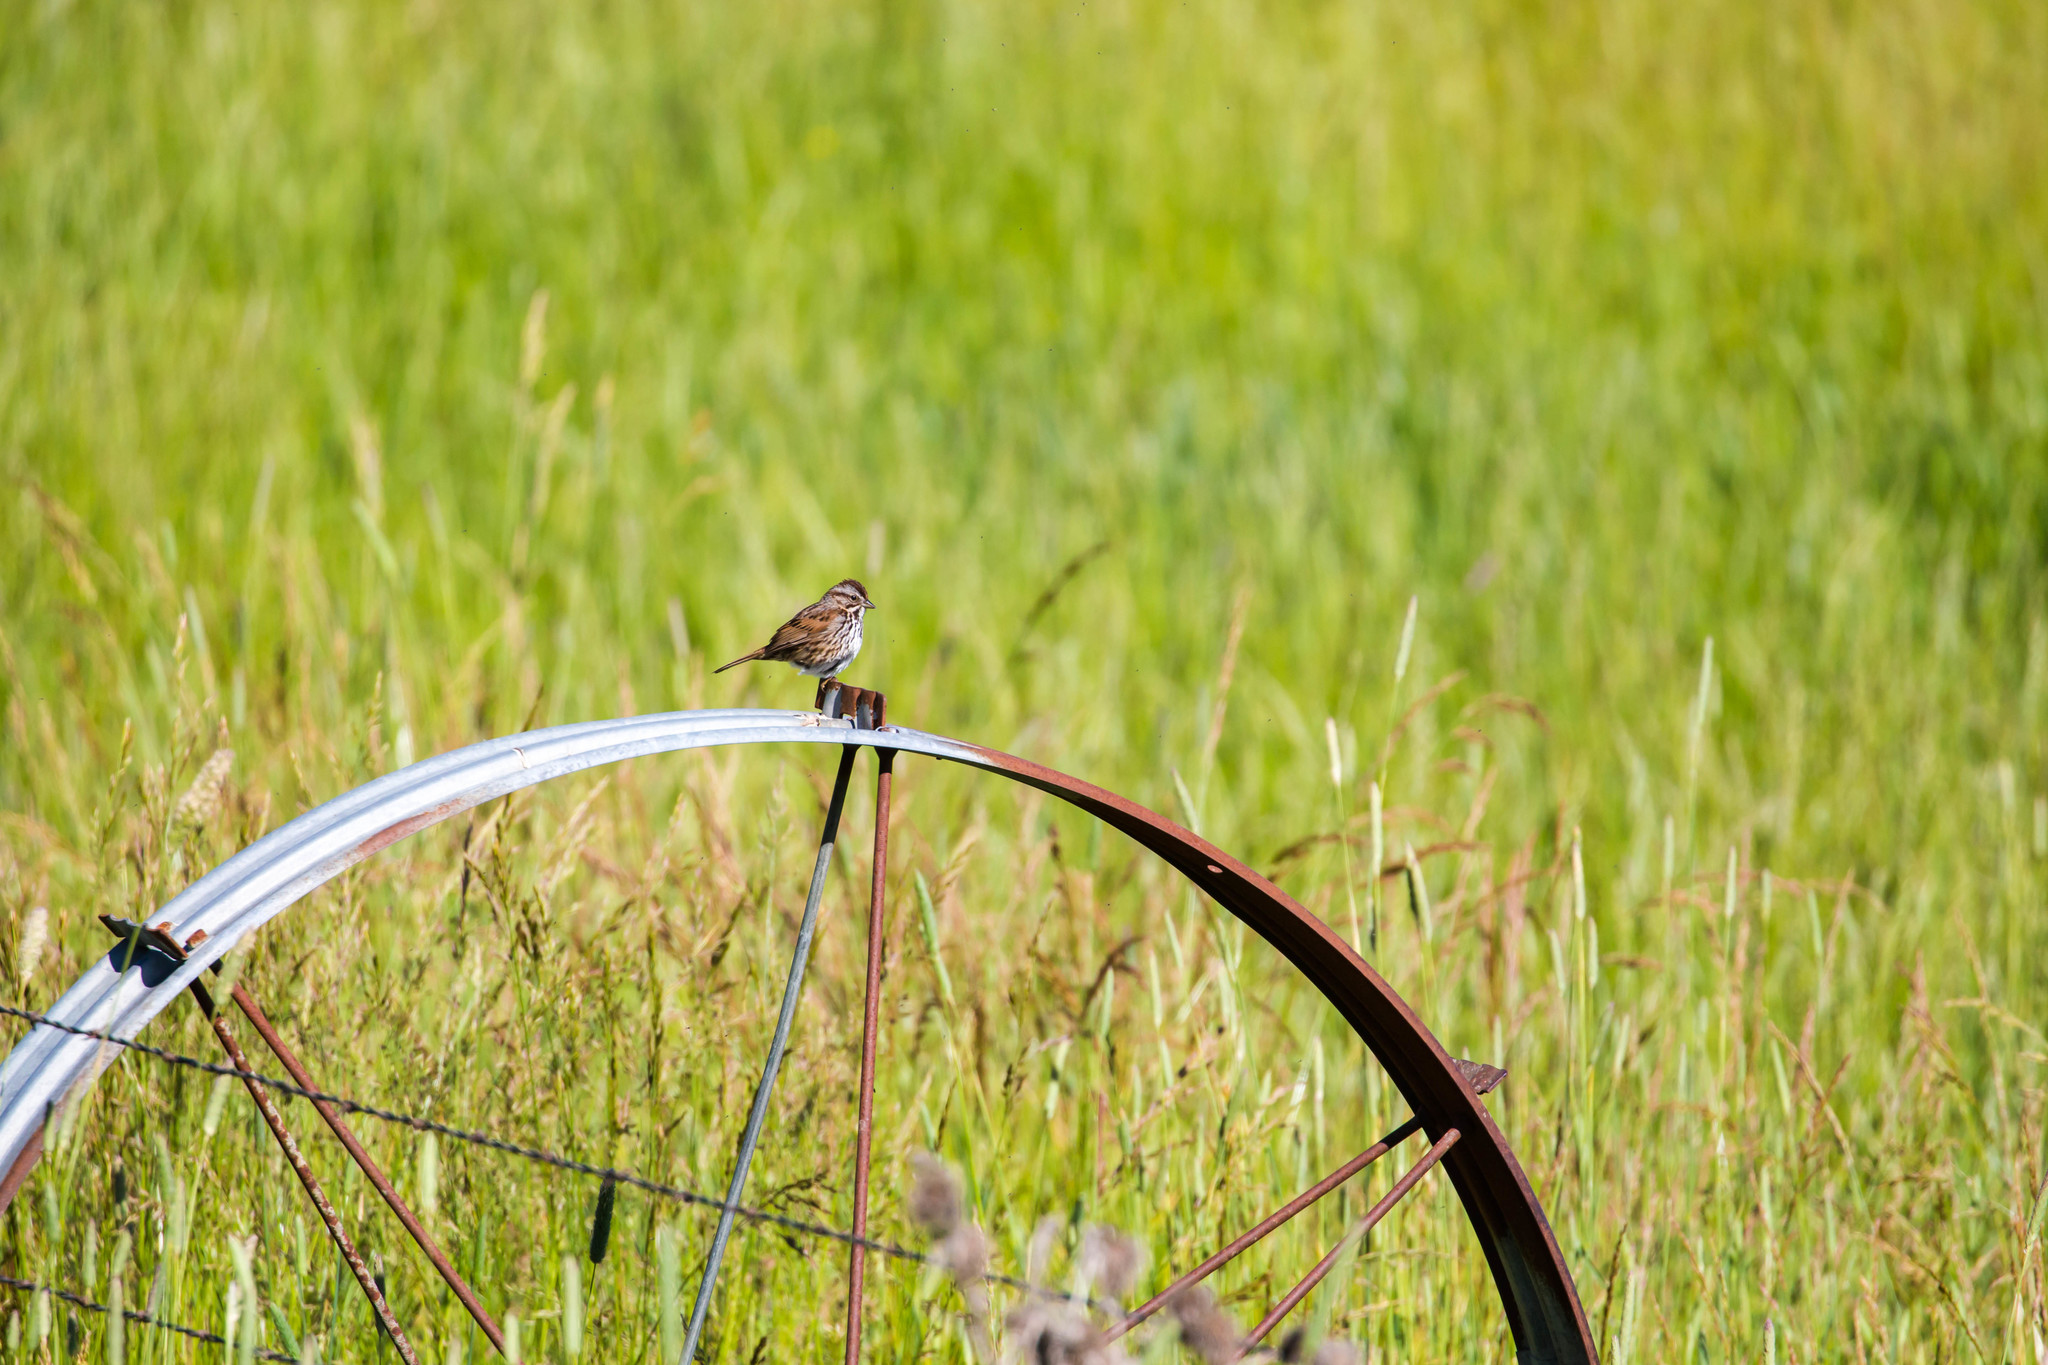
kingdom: Animalia
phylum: Chordata
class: Aves
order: Passeriformes
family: Passerellidae
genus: Melospiza
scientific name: Melospiza melodia
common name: Song sparrow
